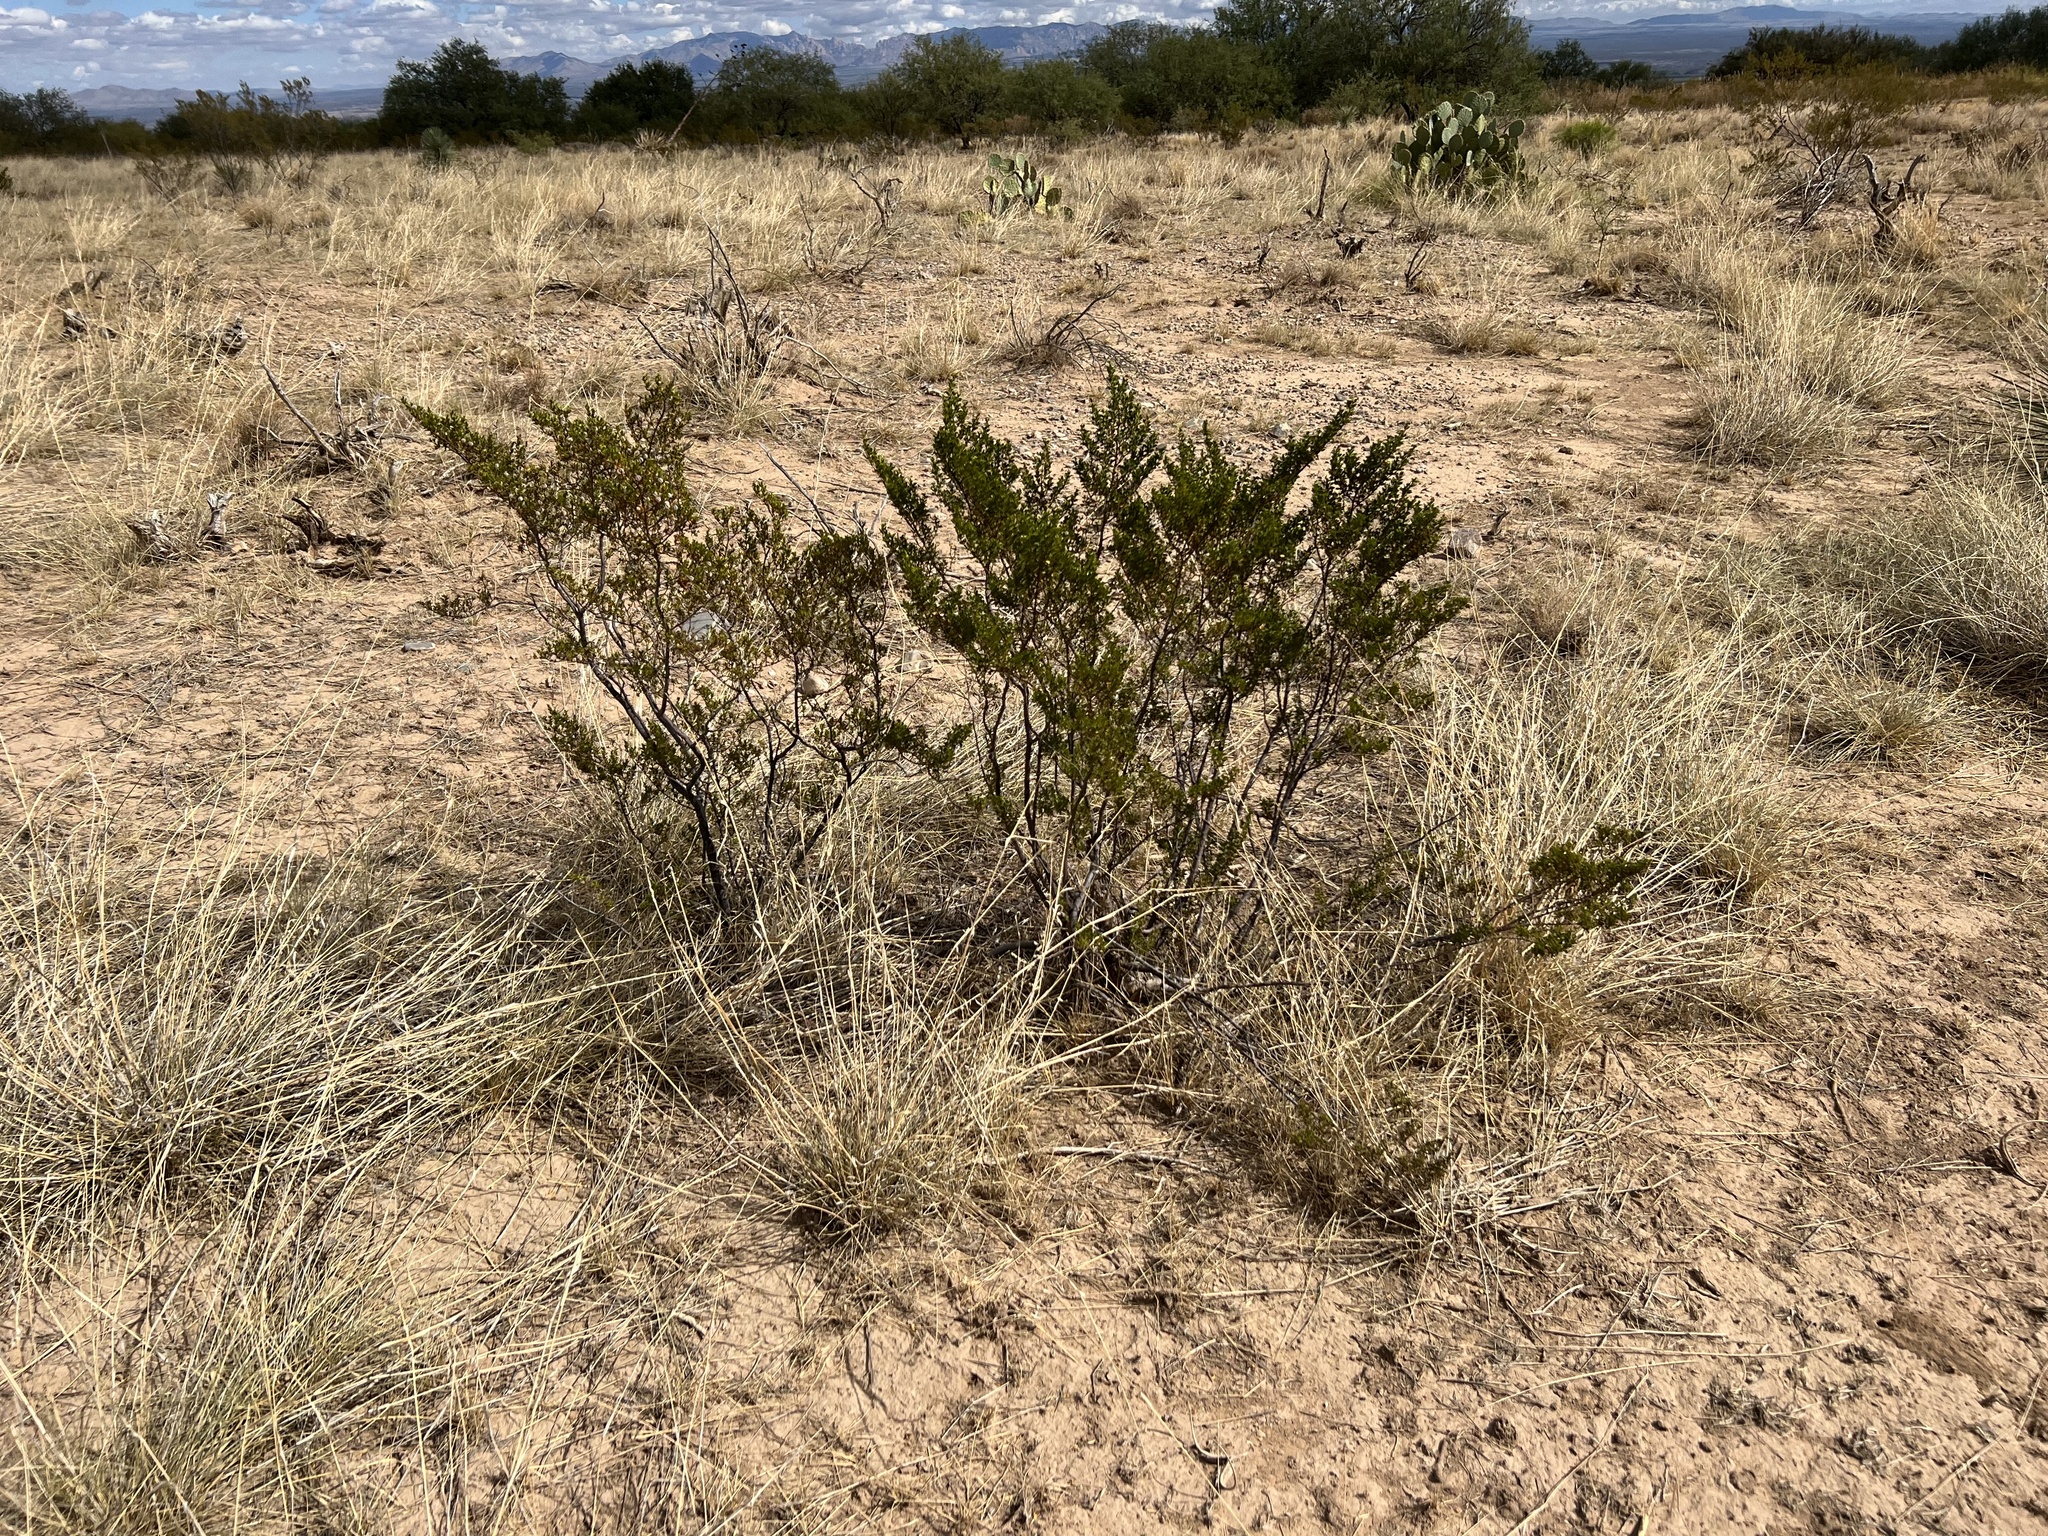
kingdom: Plantae
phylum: Tracheophyta
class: Magnoliopsida
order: Zygophyllales
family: Zygophyllaceae
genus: Larrea
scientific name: Larrea tridentata
